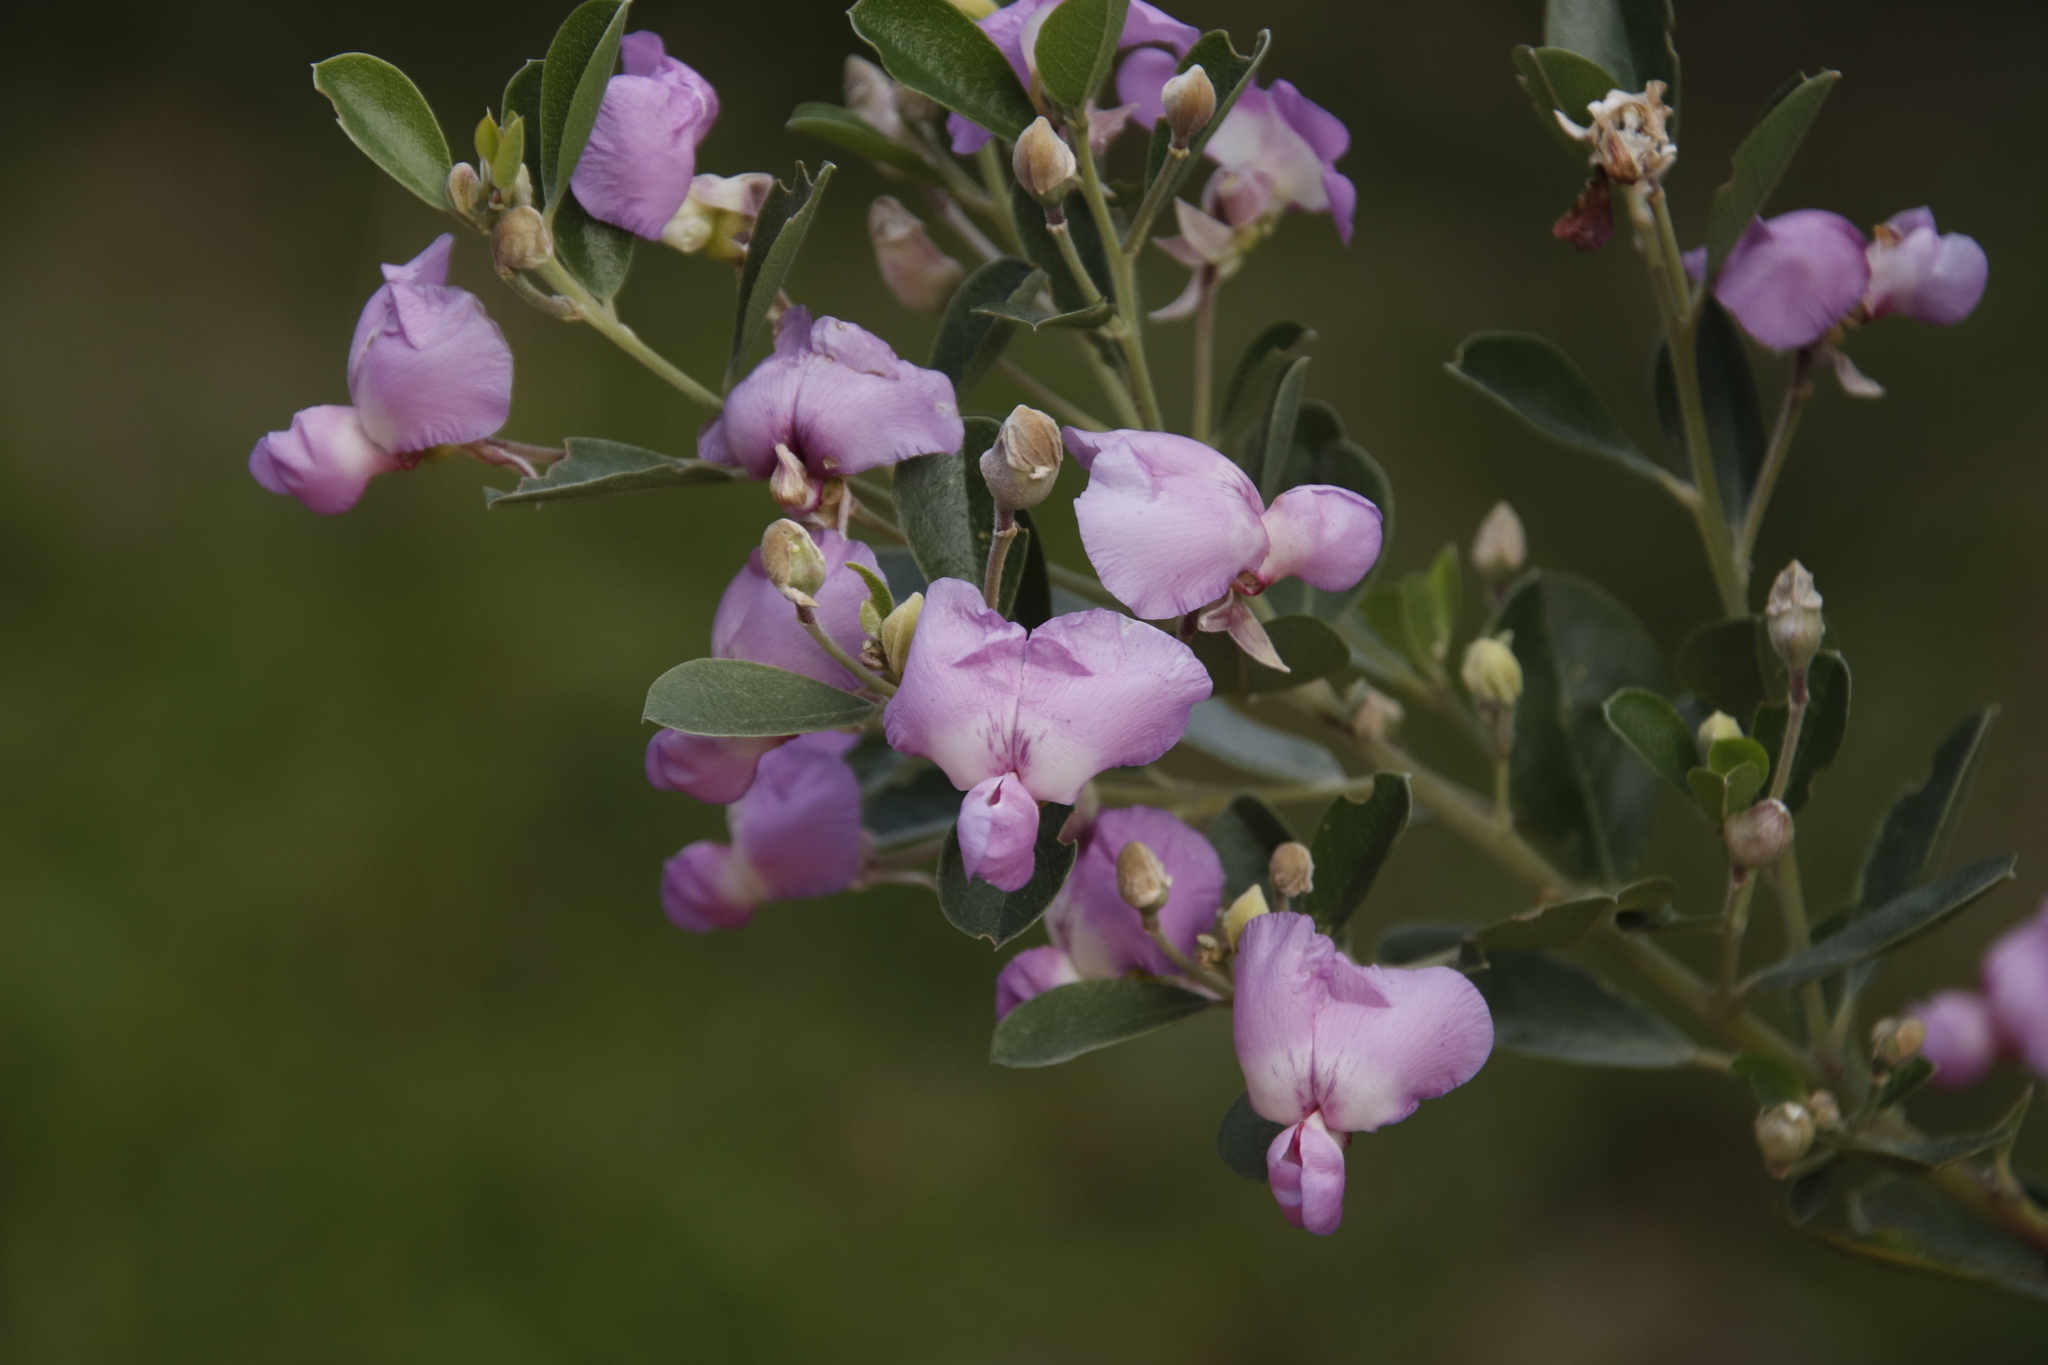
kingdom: Plantae
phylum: Tracheophyta
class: Magnoliopsida
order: Fabales
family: Fabaceae
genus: Podalyria
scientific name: Podalyria calyptrata
